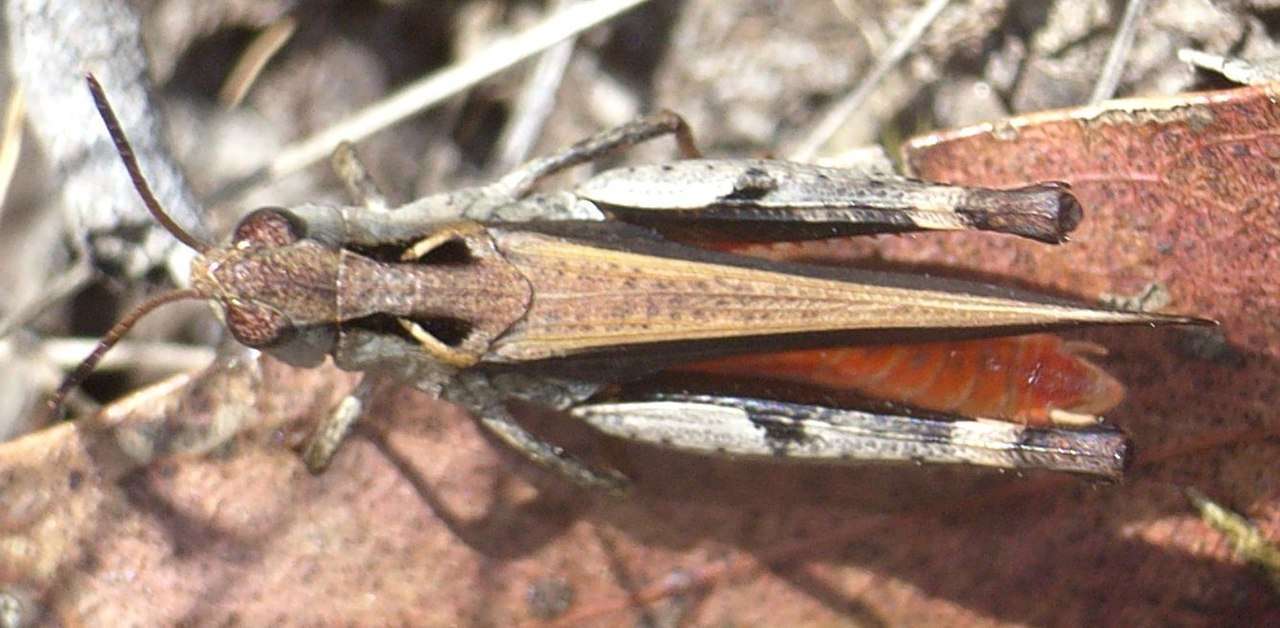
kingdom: Animalia
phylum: Arthropoda
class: Insecta
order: Orthoptera
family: Acrididae
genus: Cryptobothrus
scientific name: Cryptobothrus chrysophorus
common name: Golden bandwing
